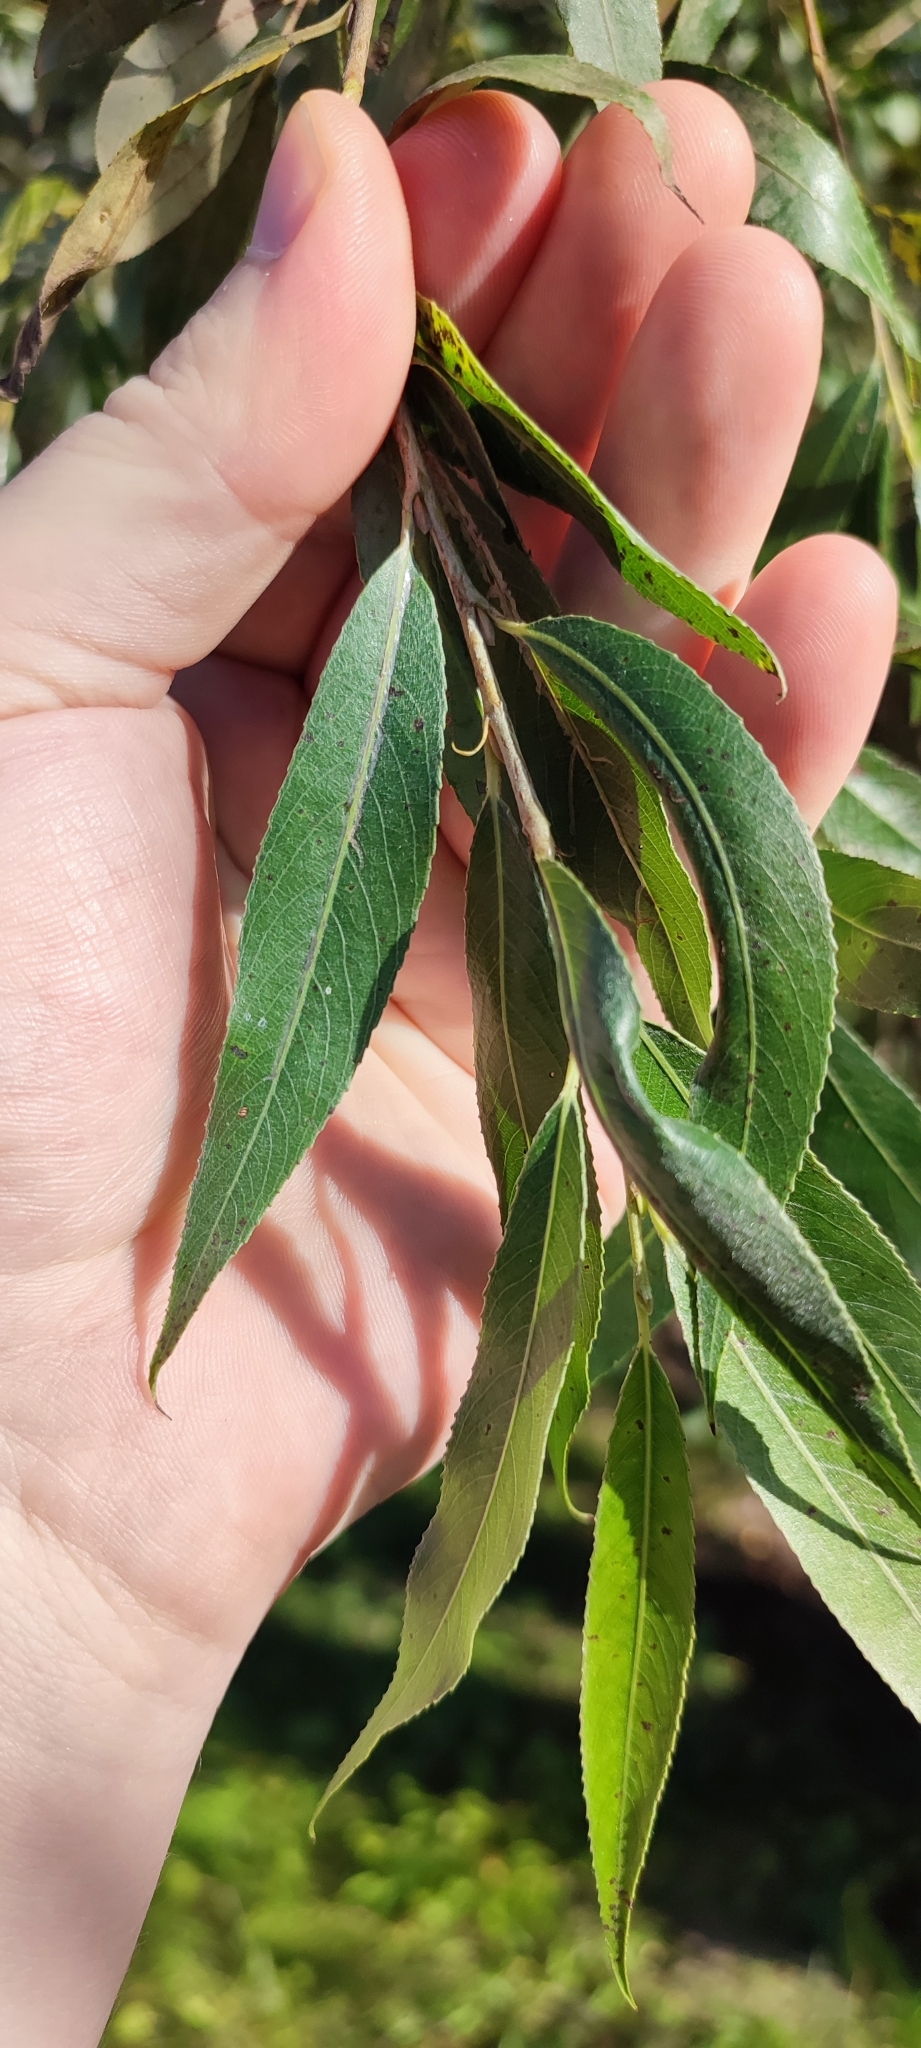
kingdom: Plantae
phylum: Tracheophyta
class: Magnoliopsida
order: Malpighiales
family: Salicaceae
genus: Salix
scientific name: Salix alba
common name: White willow
